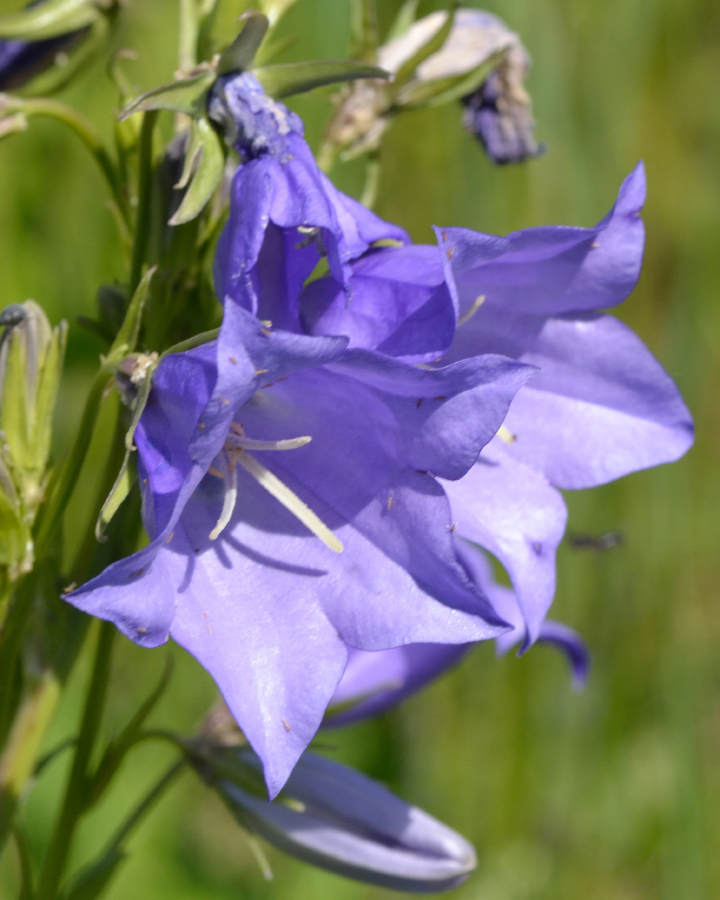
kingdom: Plantae
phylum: Tracheophyta
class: Magnoliopsida
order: Asterales
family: Campanulaceae
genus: Campanula
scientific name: Campanula persicifolia
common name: Peach-leaved bellflower
